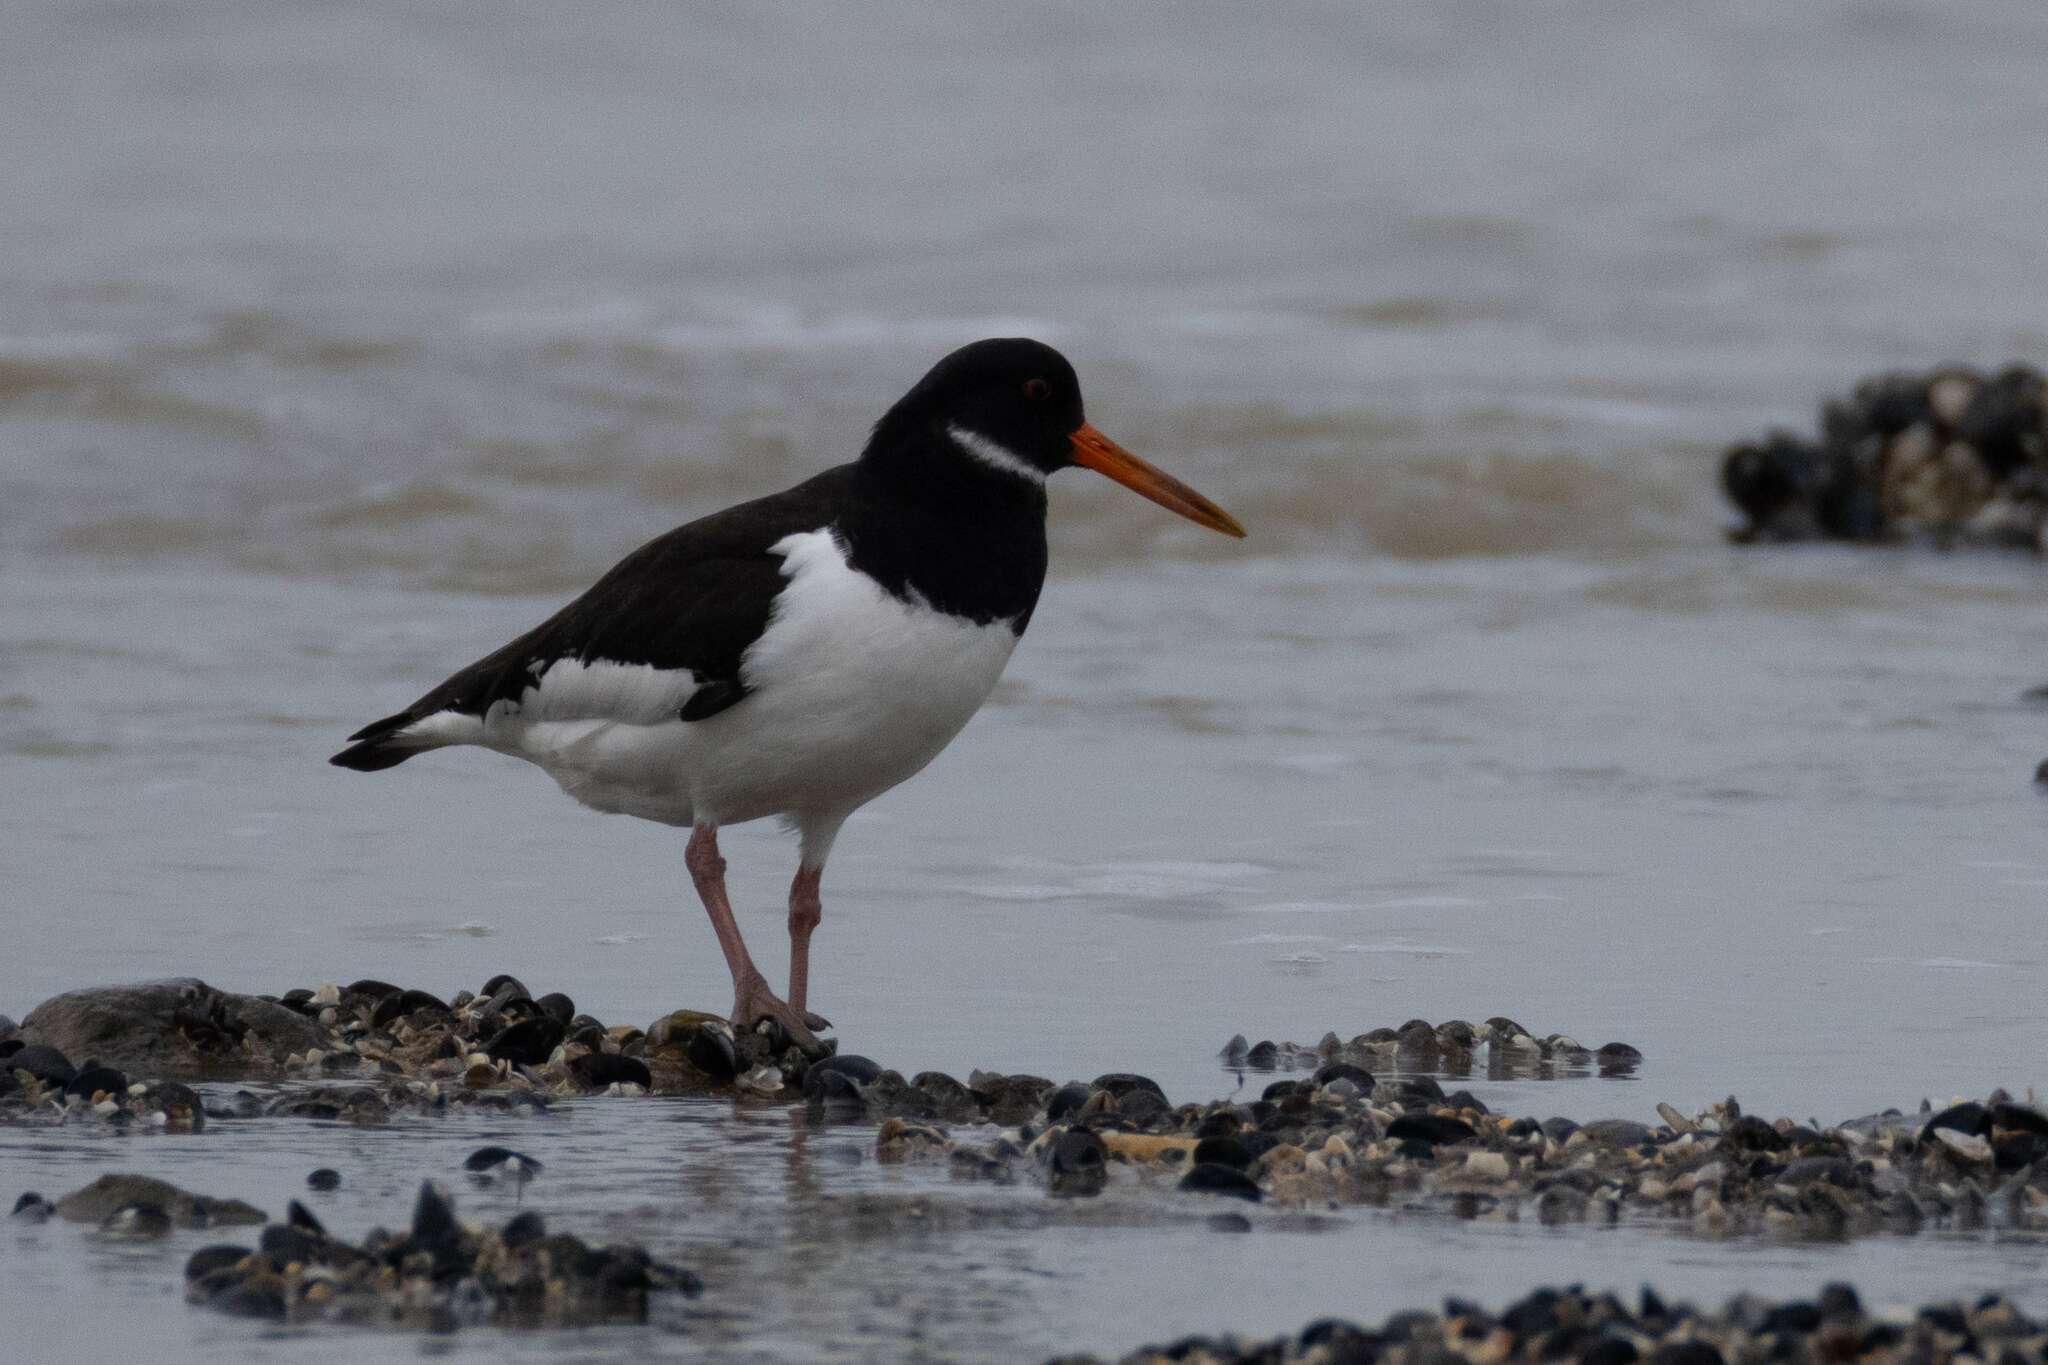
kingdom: Animalia
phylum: Chordata
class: Aves
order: Charadriiformes
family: Haematopodidae
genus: Haematopus
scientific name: Haematopus ostralegus
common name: Eurasian oystercatcher
